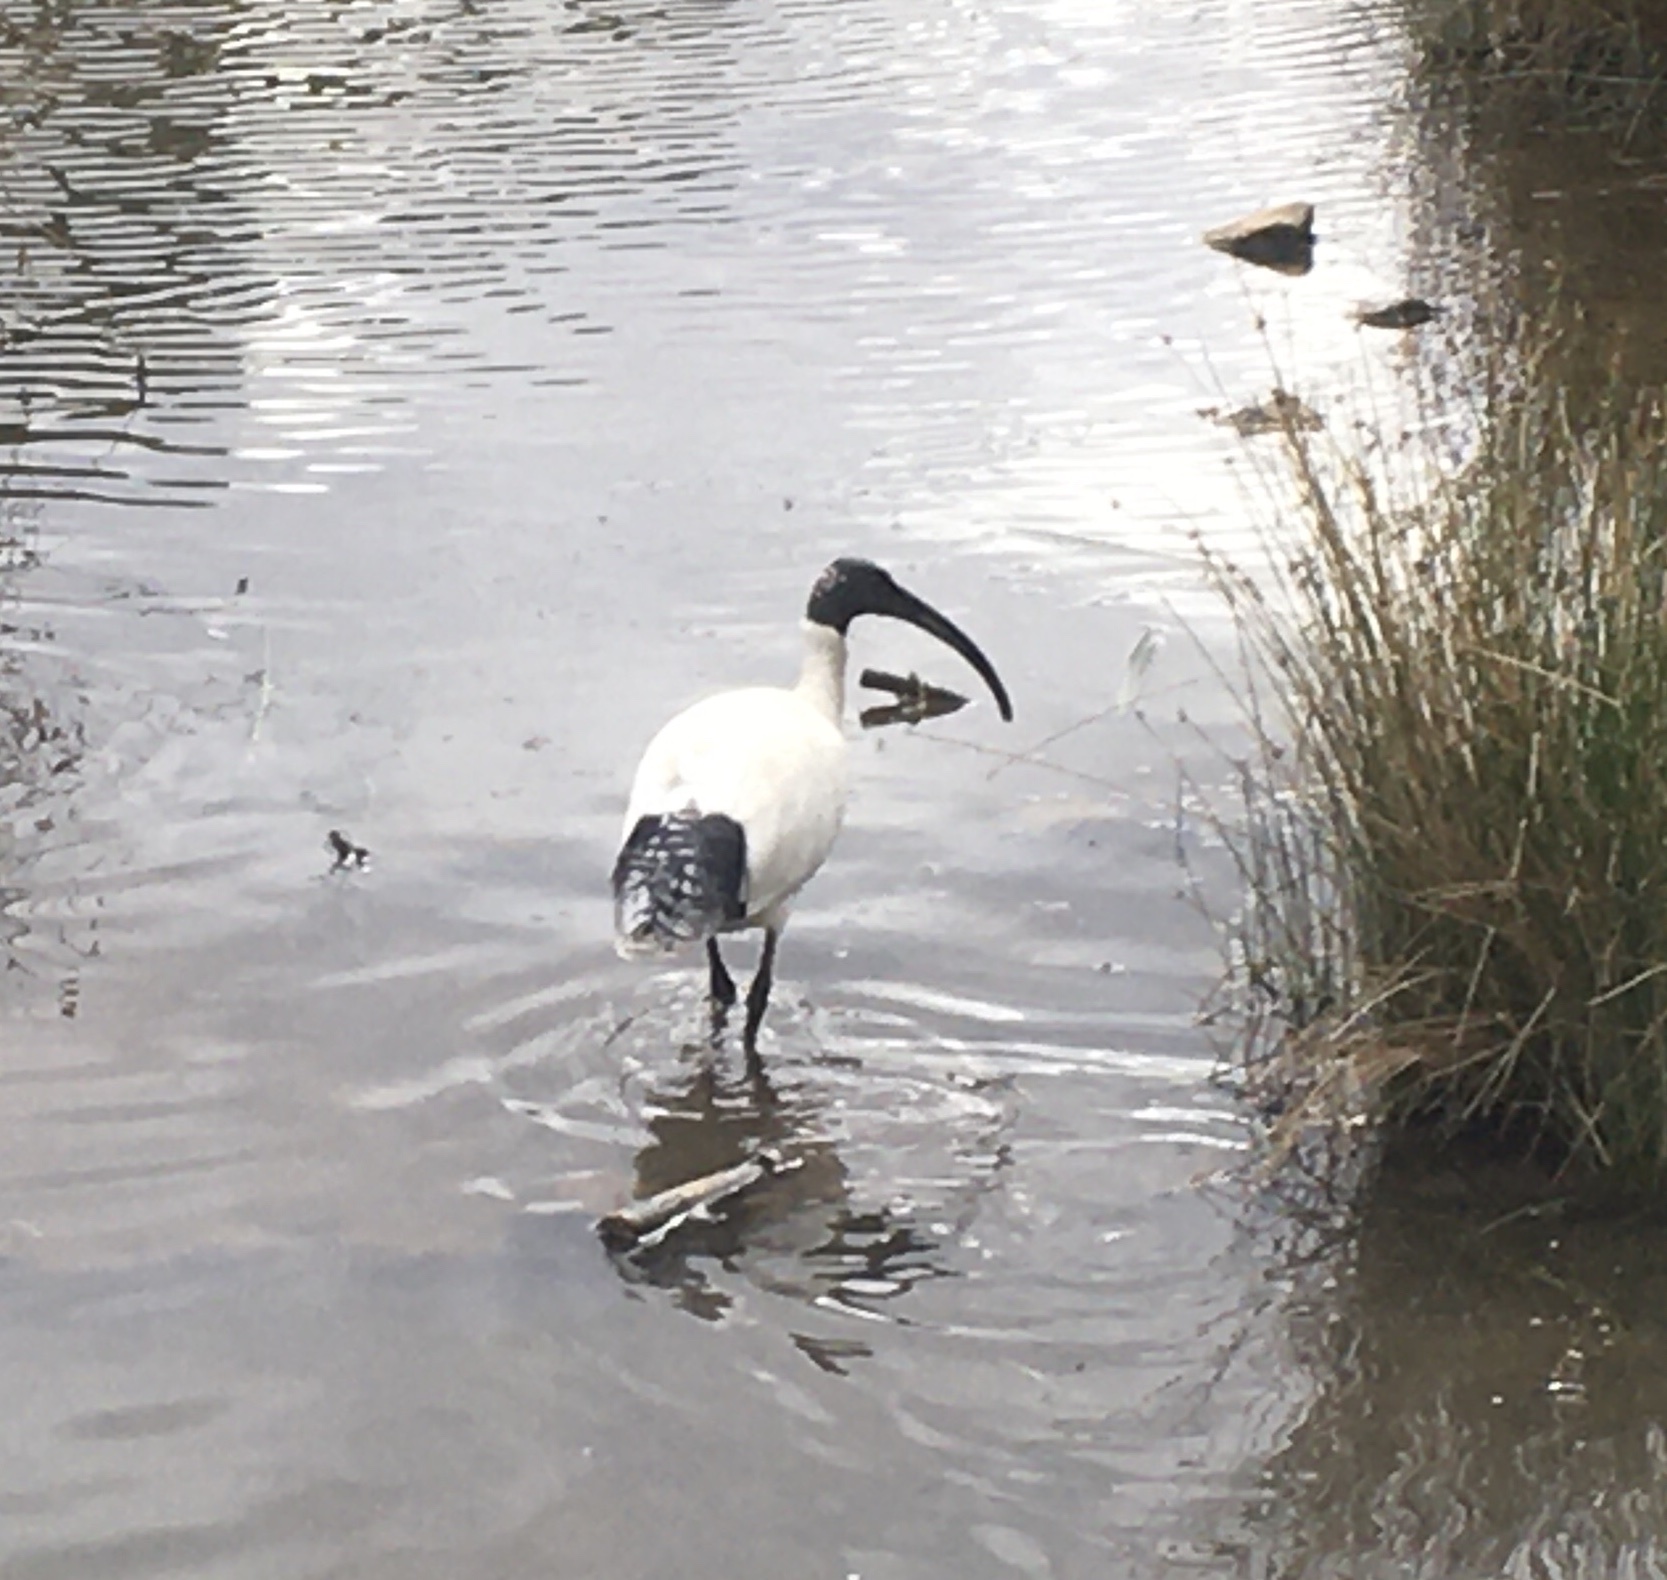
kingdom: Animalia
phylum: Chordata
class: Aves
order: Pelecaniformes
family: Threskiornithidae
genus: Threskiornis
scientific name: Threskiornis molucca
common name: Australian white ibis
